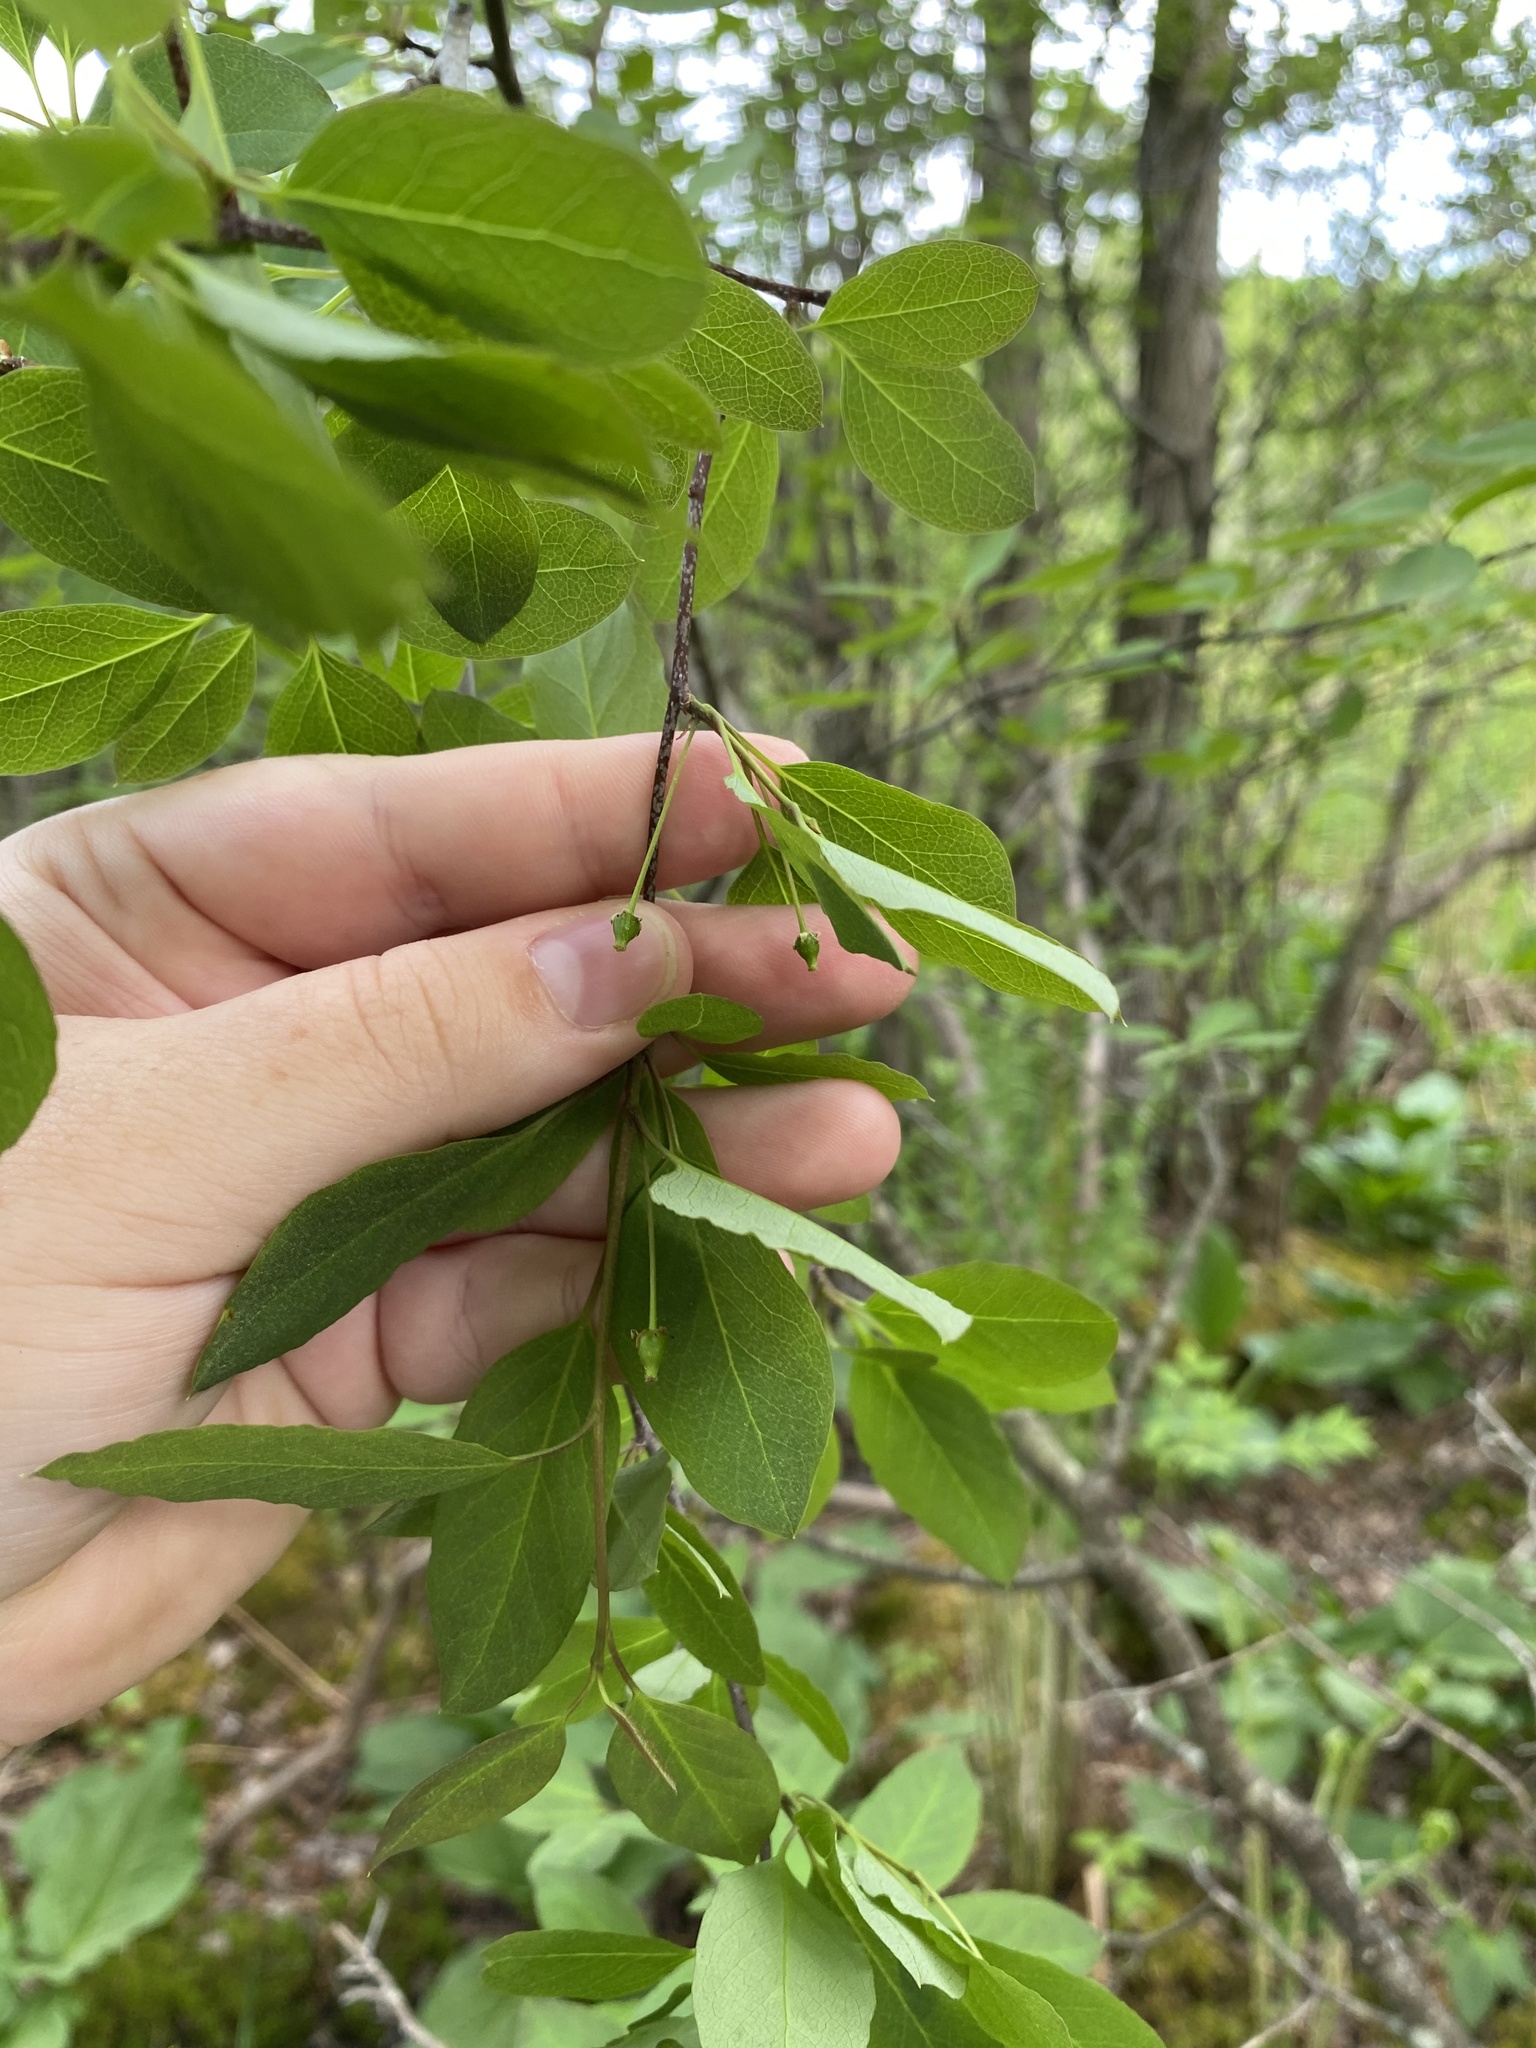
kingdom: Plantae
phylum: Tracheophyta
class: Magnoliopsida
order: Aquifoliales
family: Aquifoliaceae
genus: Ilex
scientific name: Ilex mucronata
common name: Catberry
